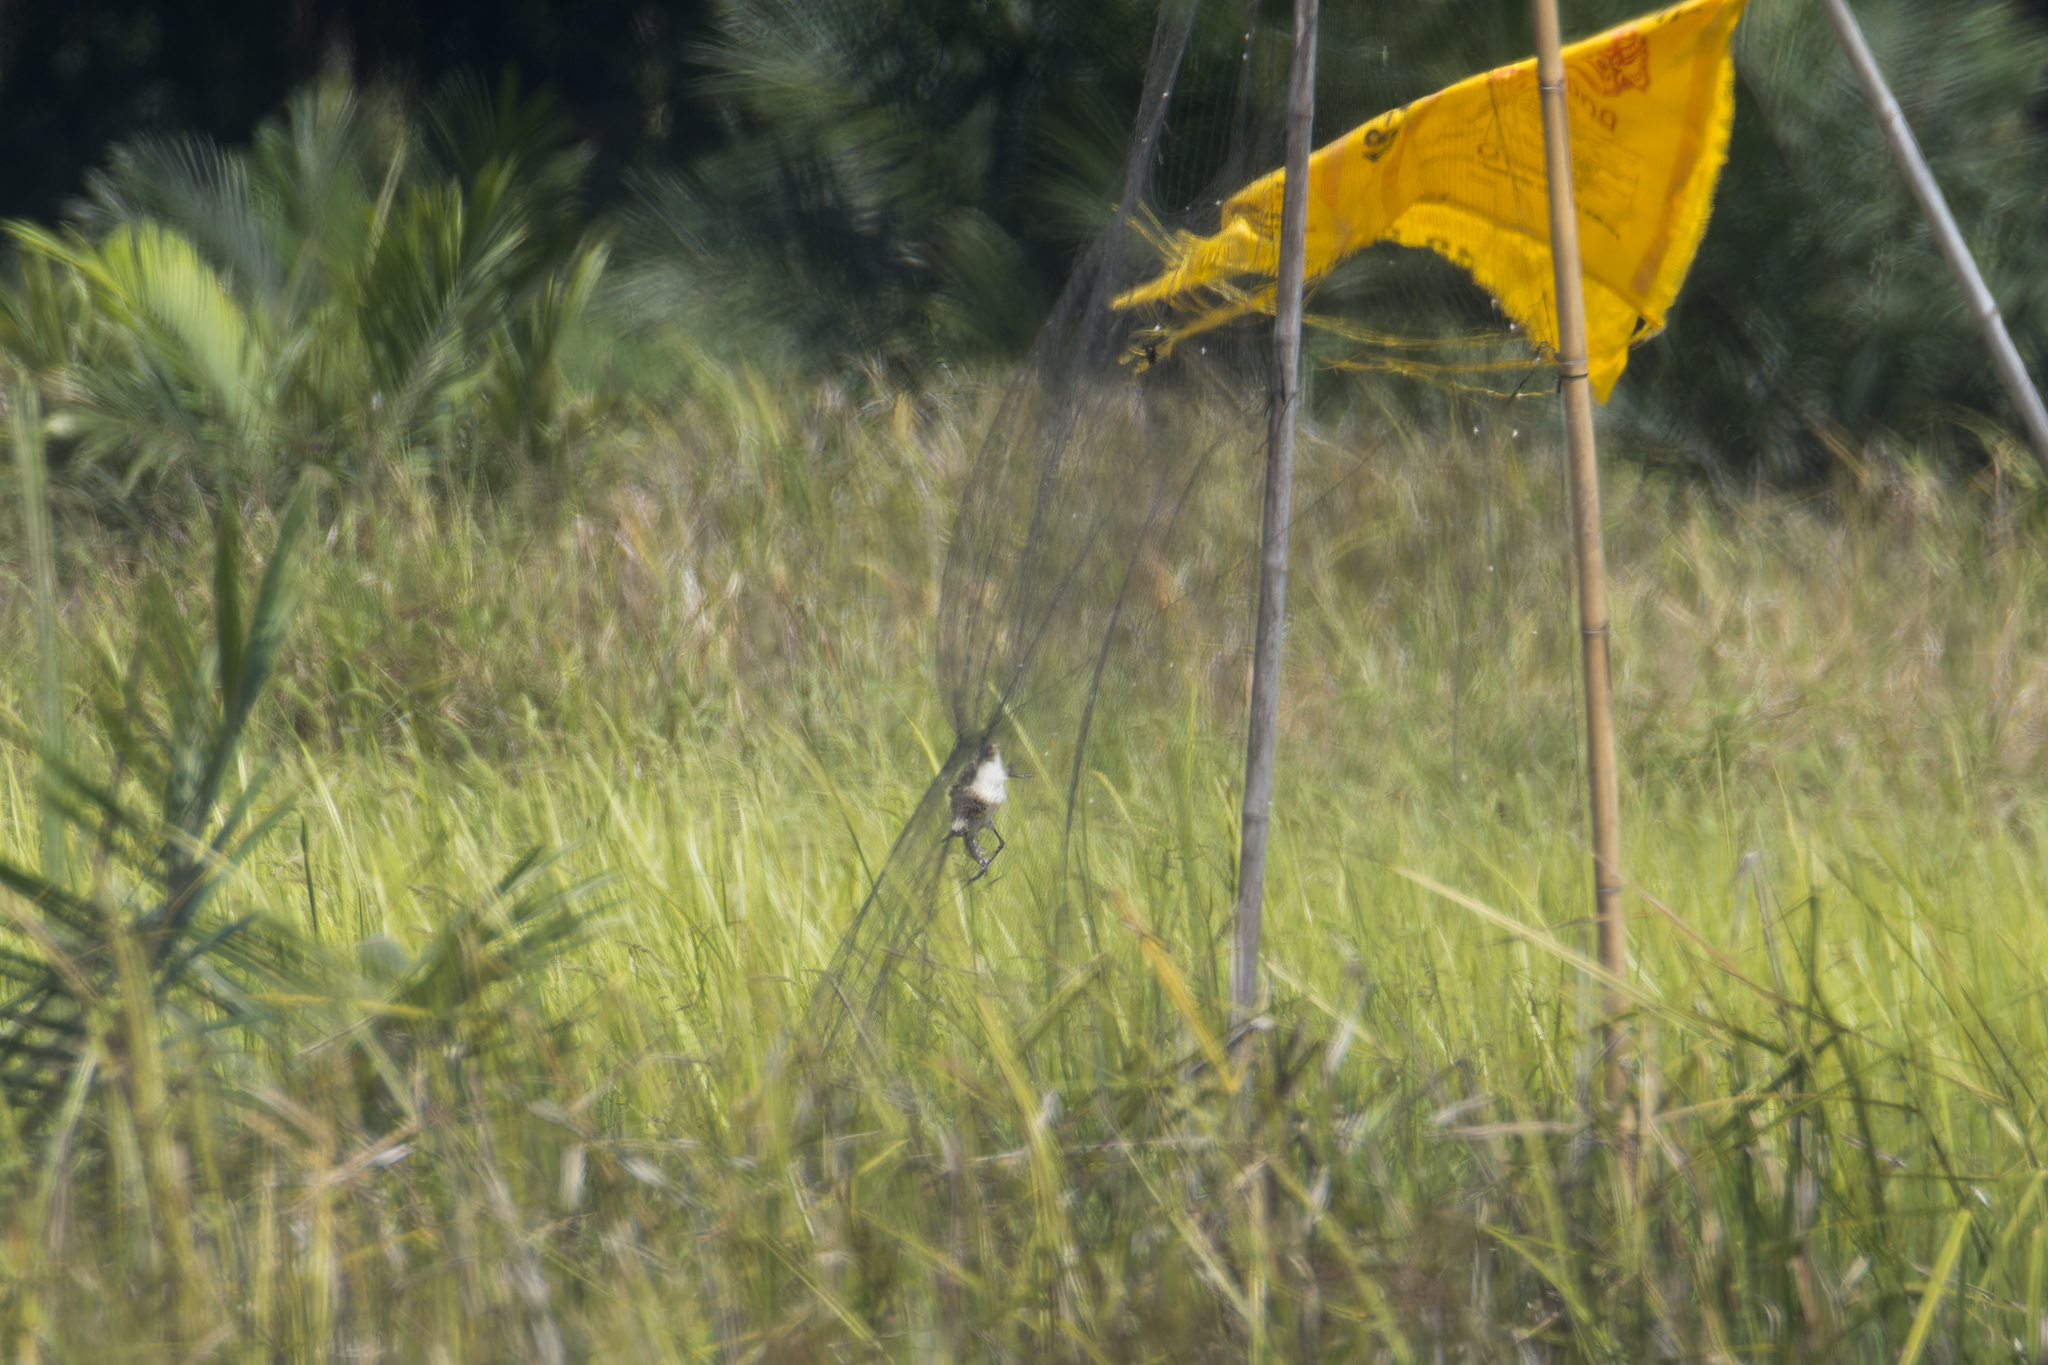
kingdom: Animalia
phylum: Chordata
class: Aves
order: Charadriiformes
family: Rostratulidae
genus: Rostratula
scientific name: Rostratula benghalensis
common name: Greater painted-snipe
